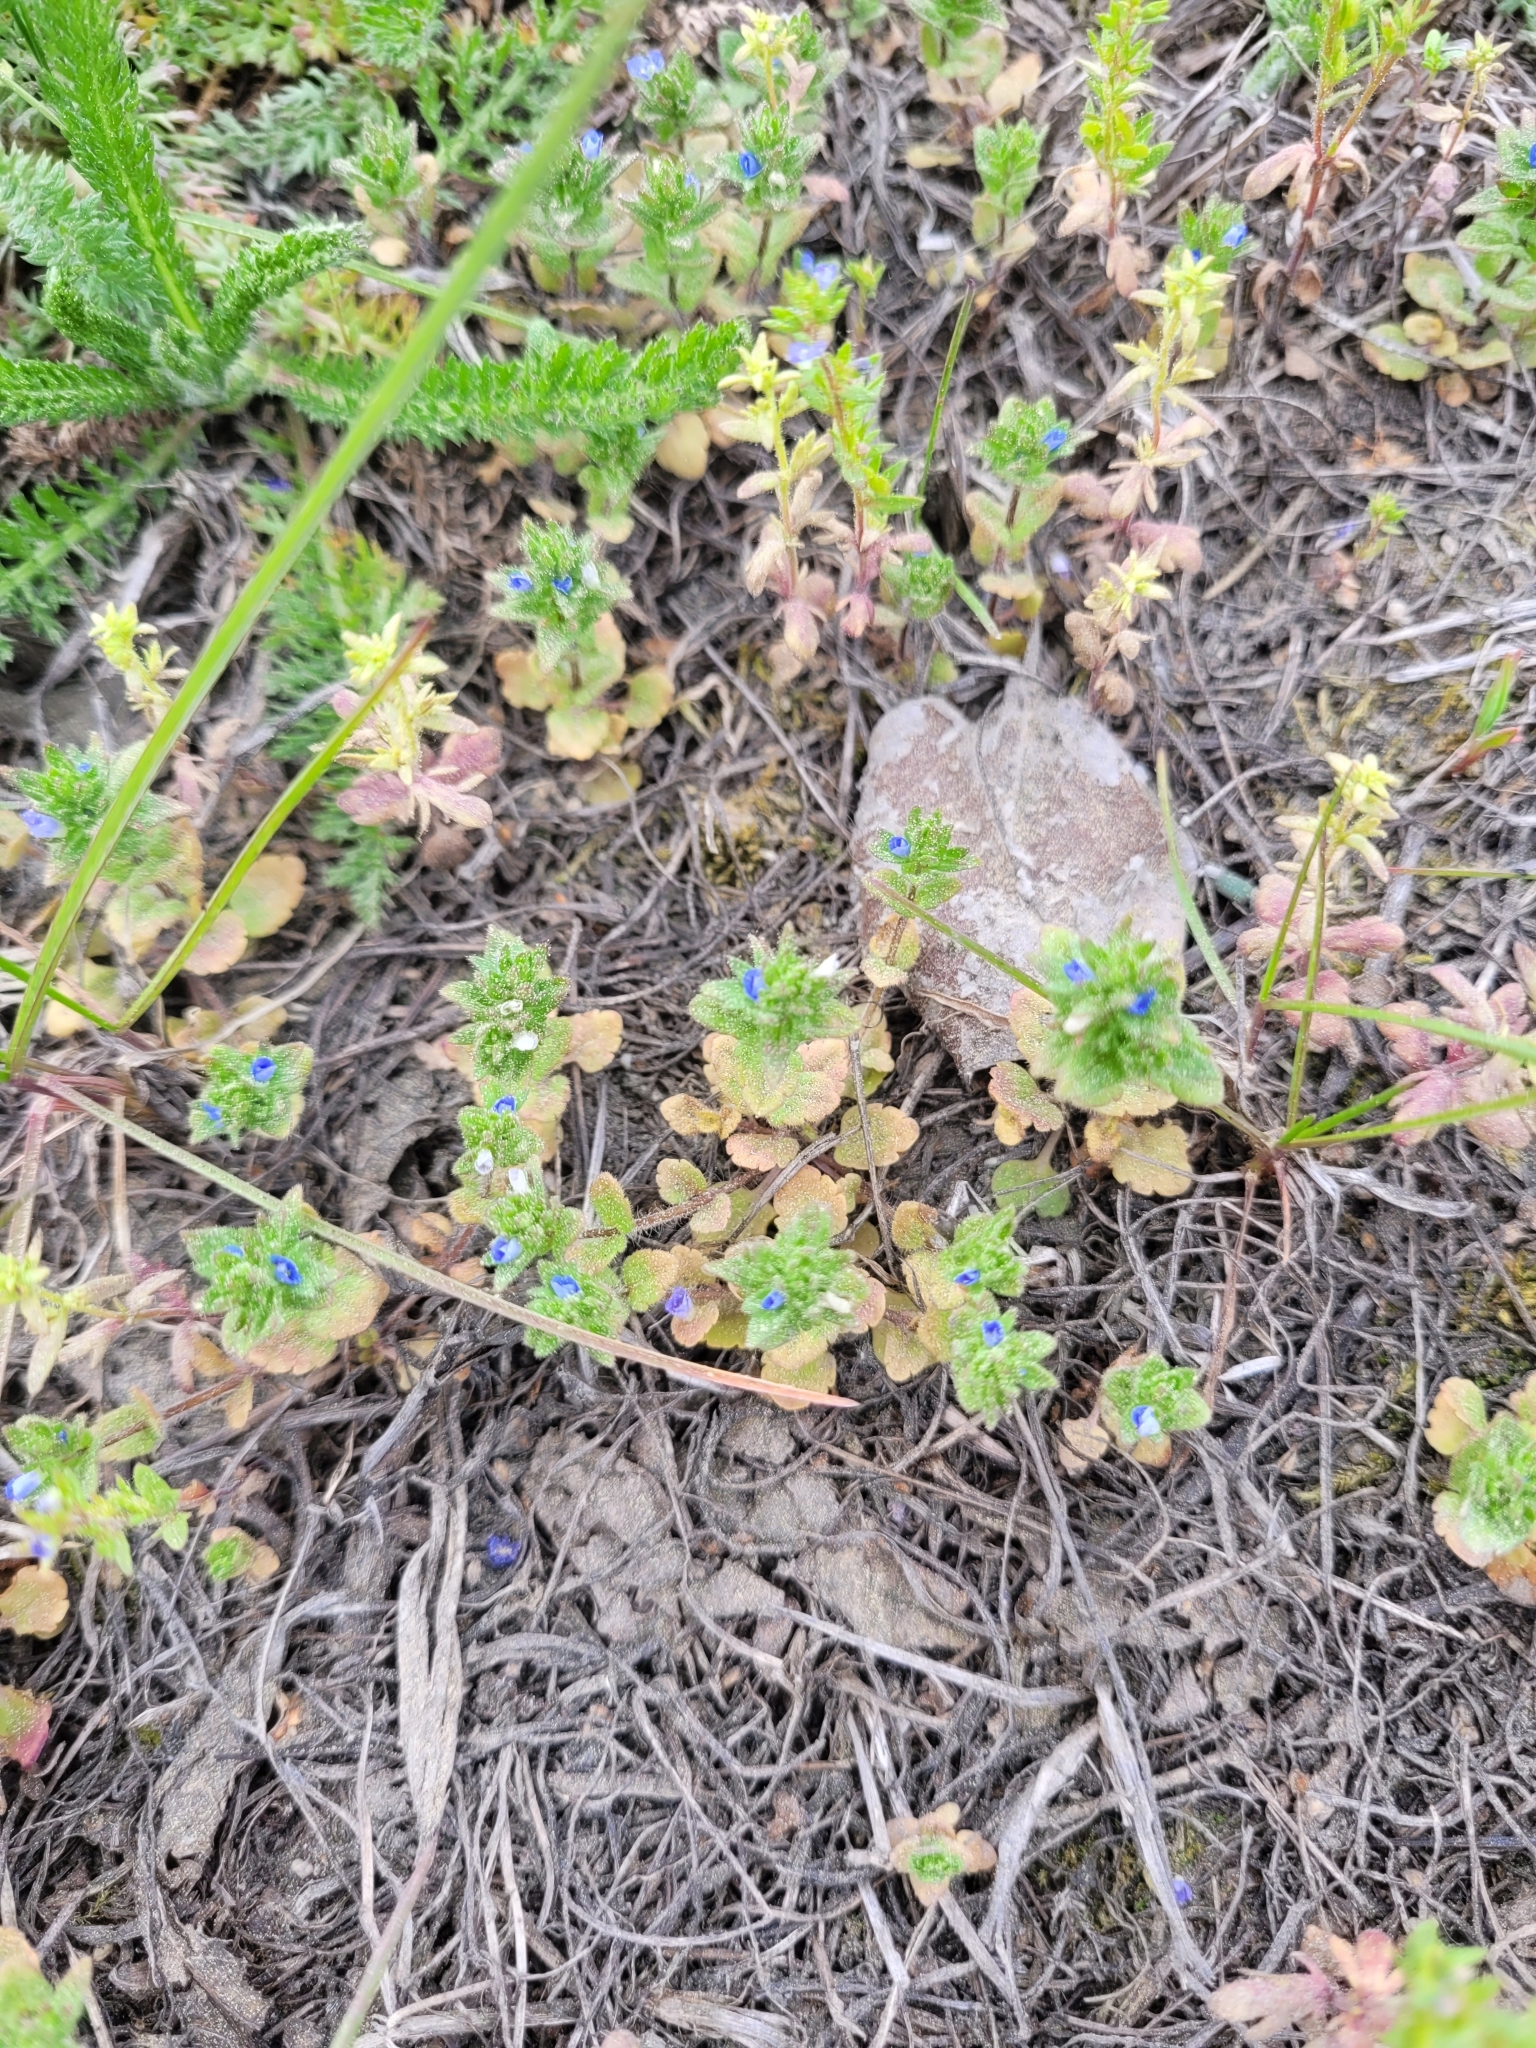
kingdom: Plantae
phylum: Tracheophyta
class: Magnoliopsida
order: Lamiales
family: Plantaginaceae
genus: Veronica
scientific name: Veronica arvensis
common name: Corn speedwell
